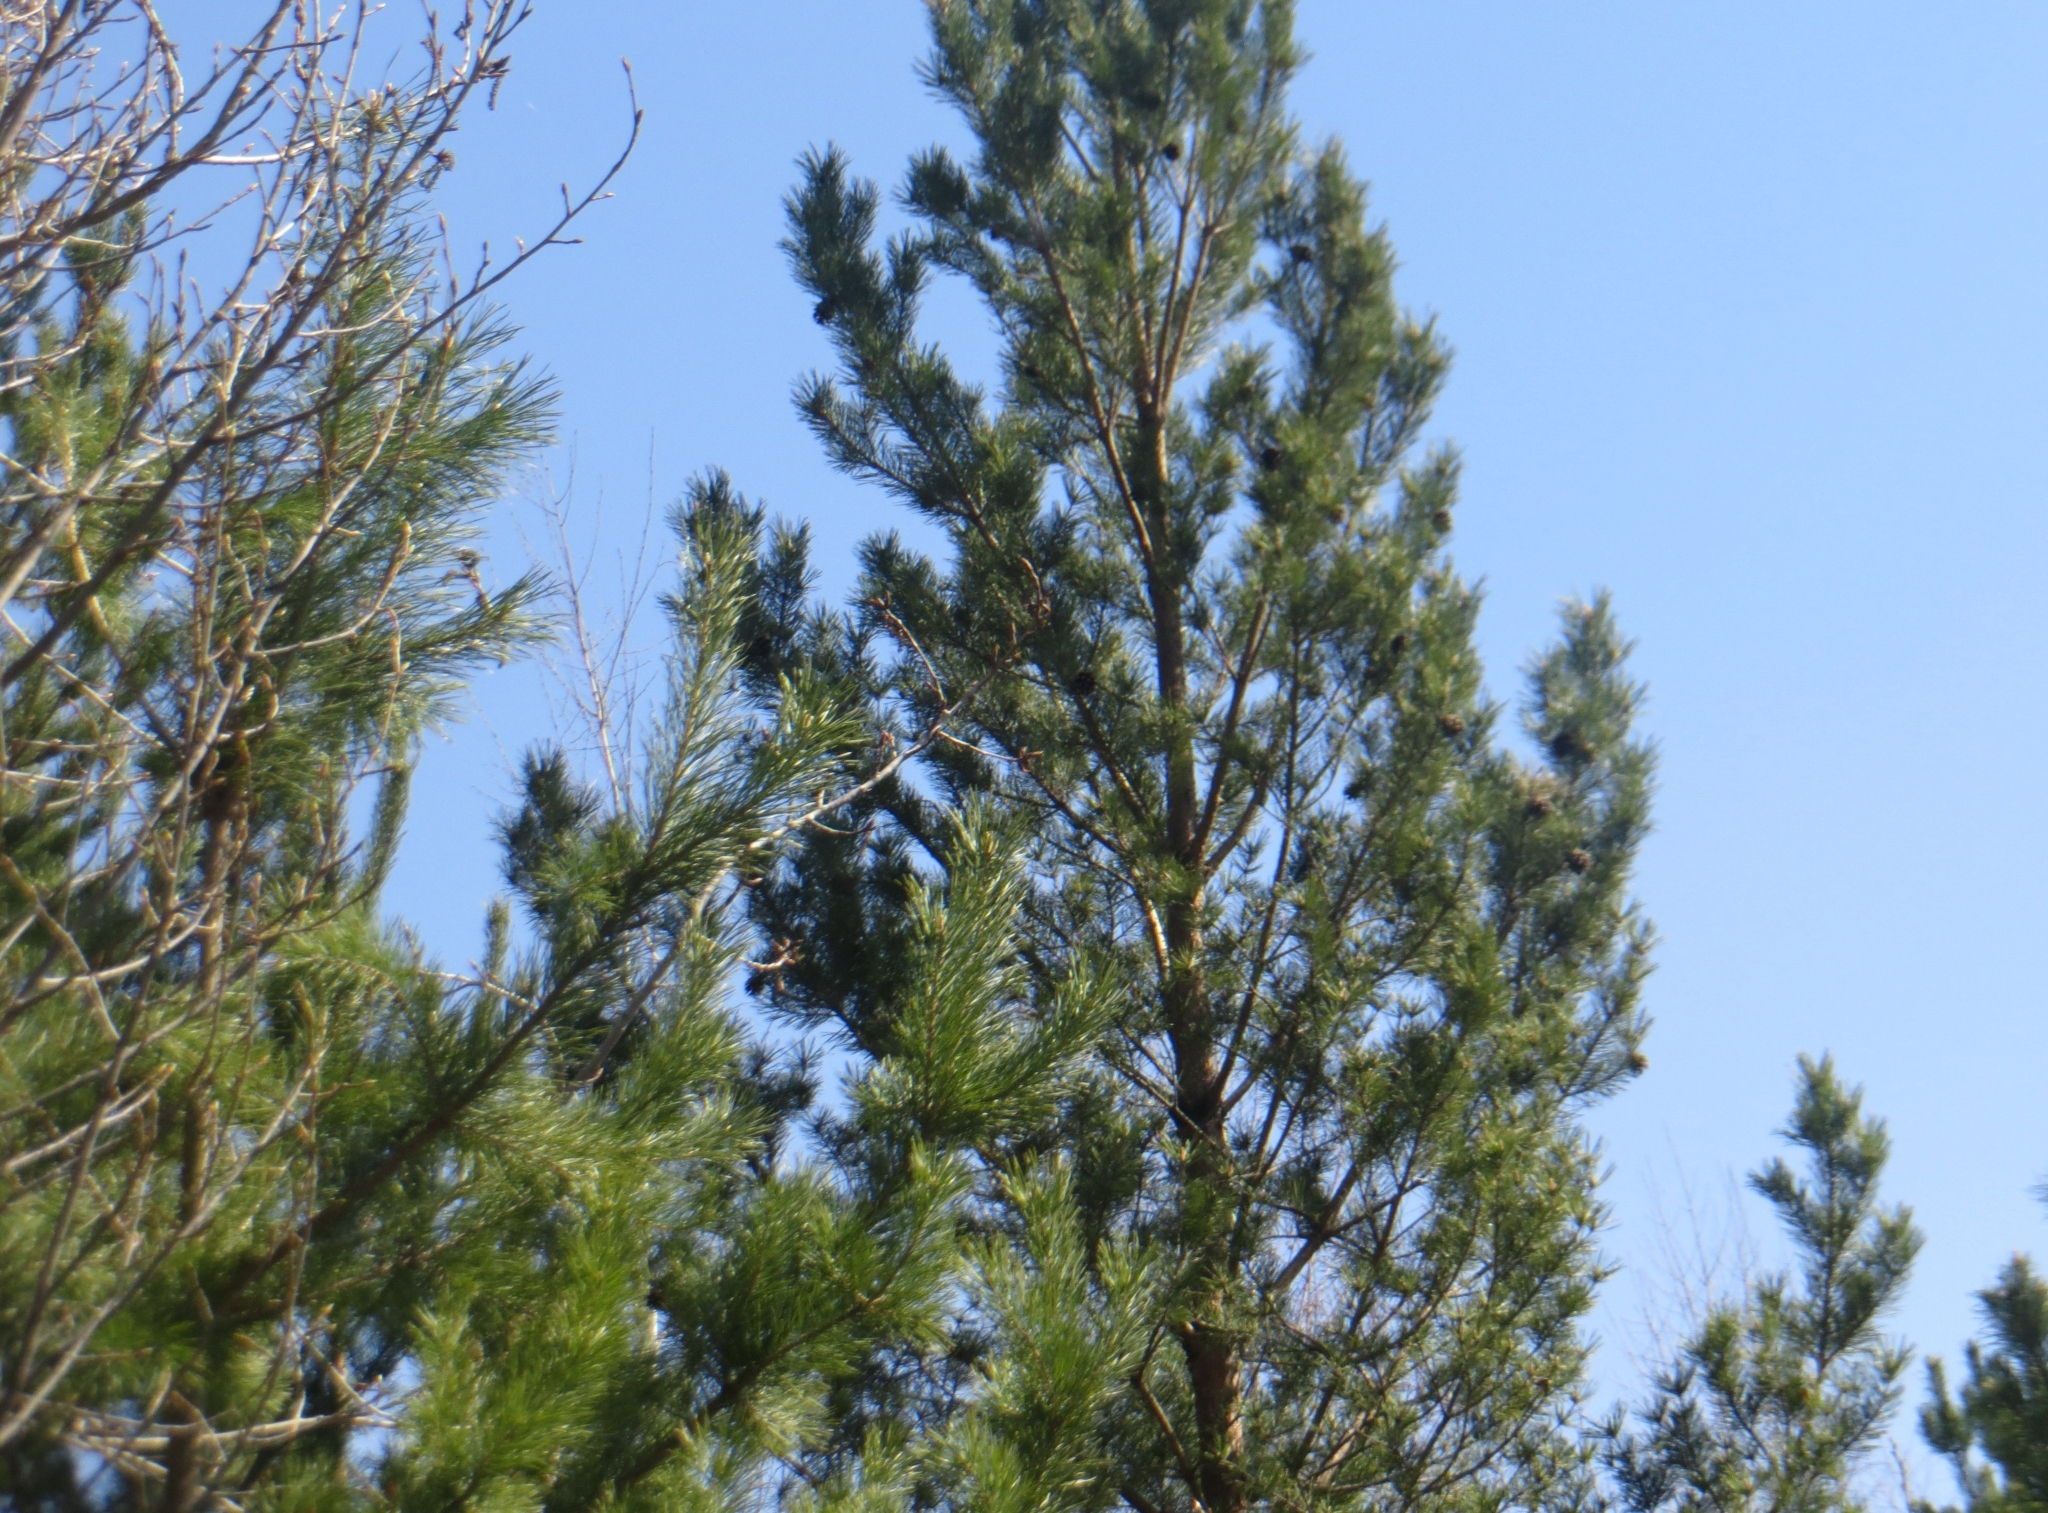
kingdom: Plantae
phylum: Tracheophyta
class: Pinopsida
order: Pinales
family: Pinaceae
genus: Pinus
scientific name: Pinus sylvestris
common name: Scots pine
